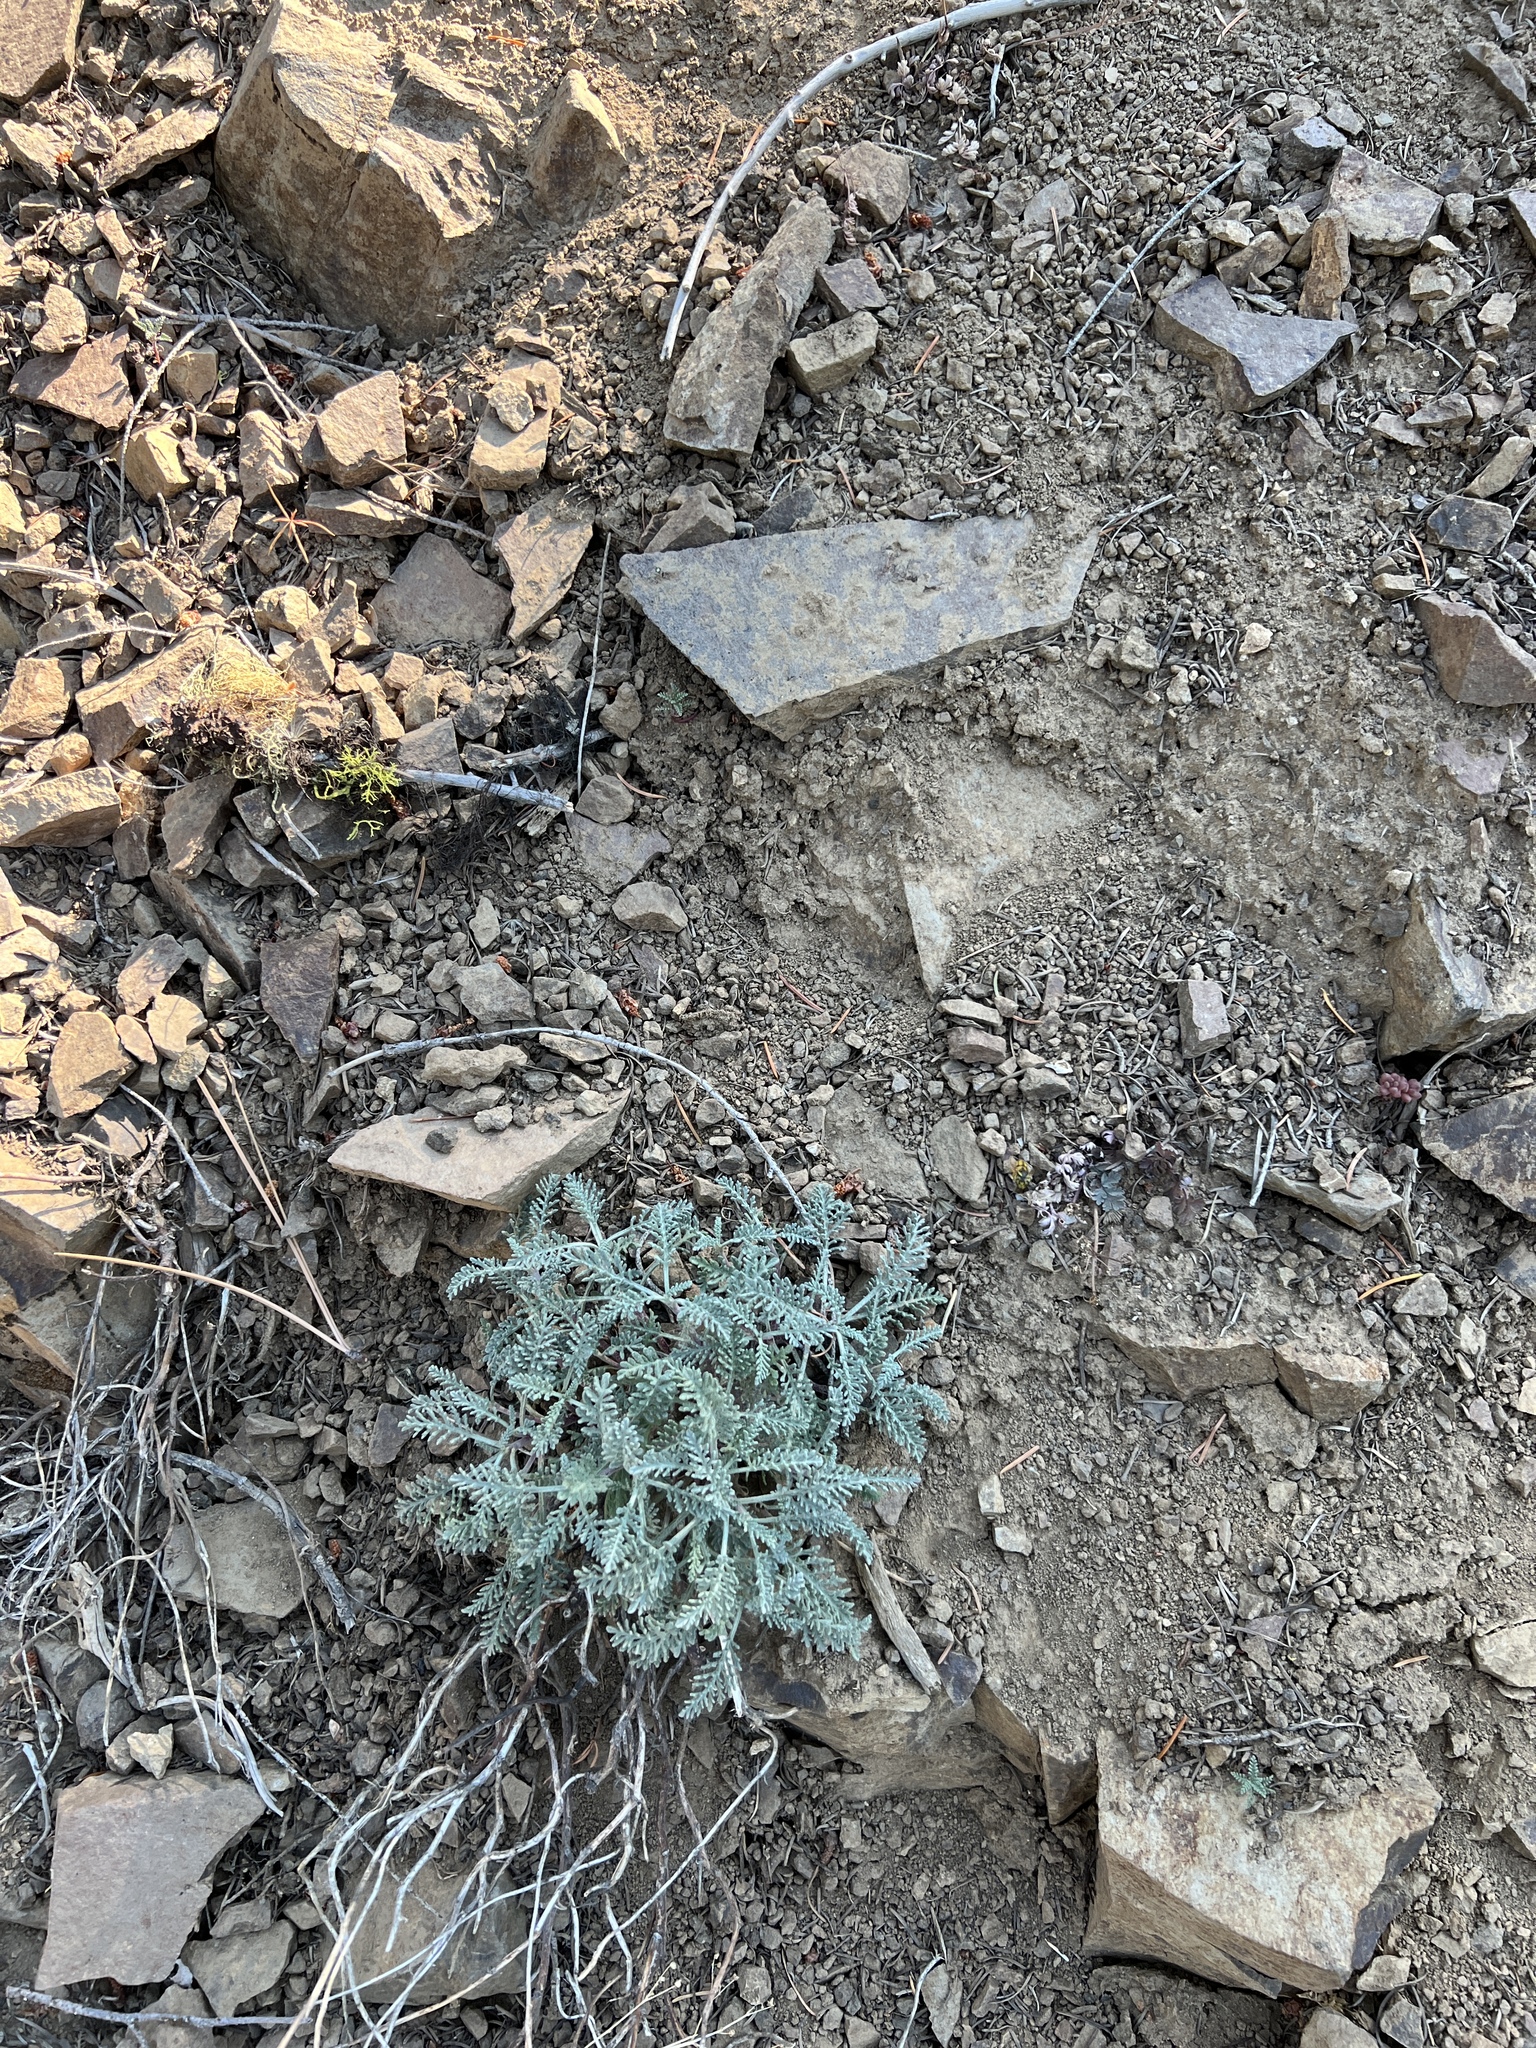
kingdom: Plantae
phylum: Tracheophyta
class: Magnoliopsida
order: Asterales
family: Asteraceae
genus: Chaenactis
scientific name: Chaenactis douglasii
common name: Hoary pincushion
